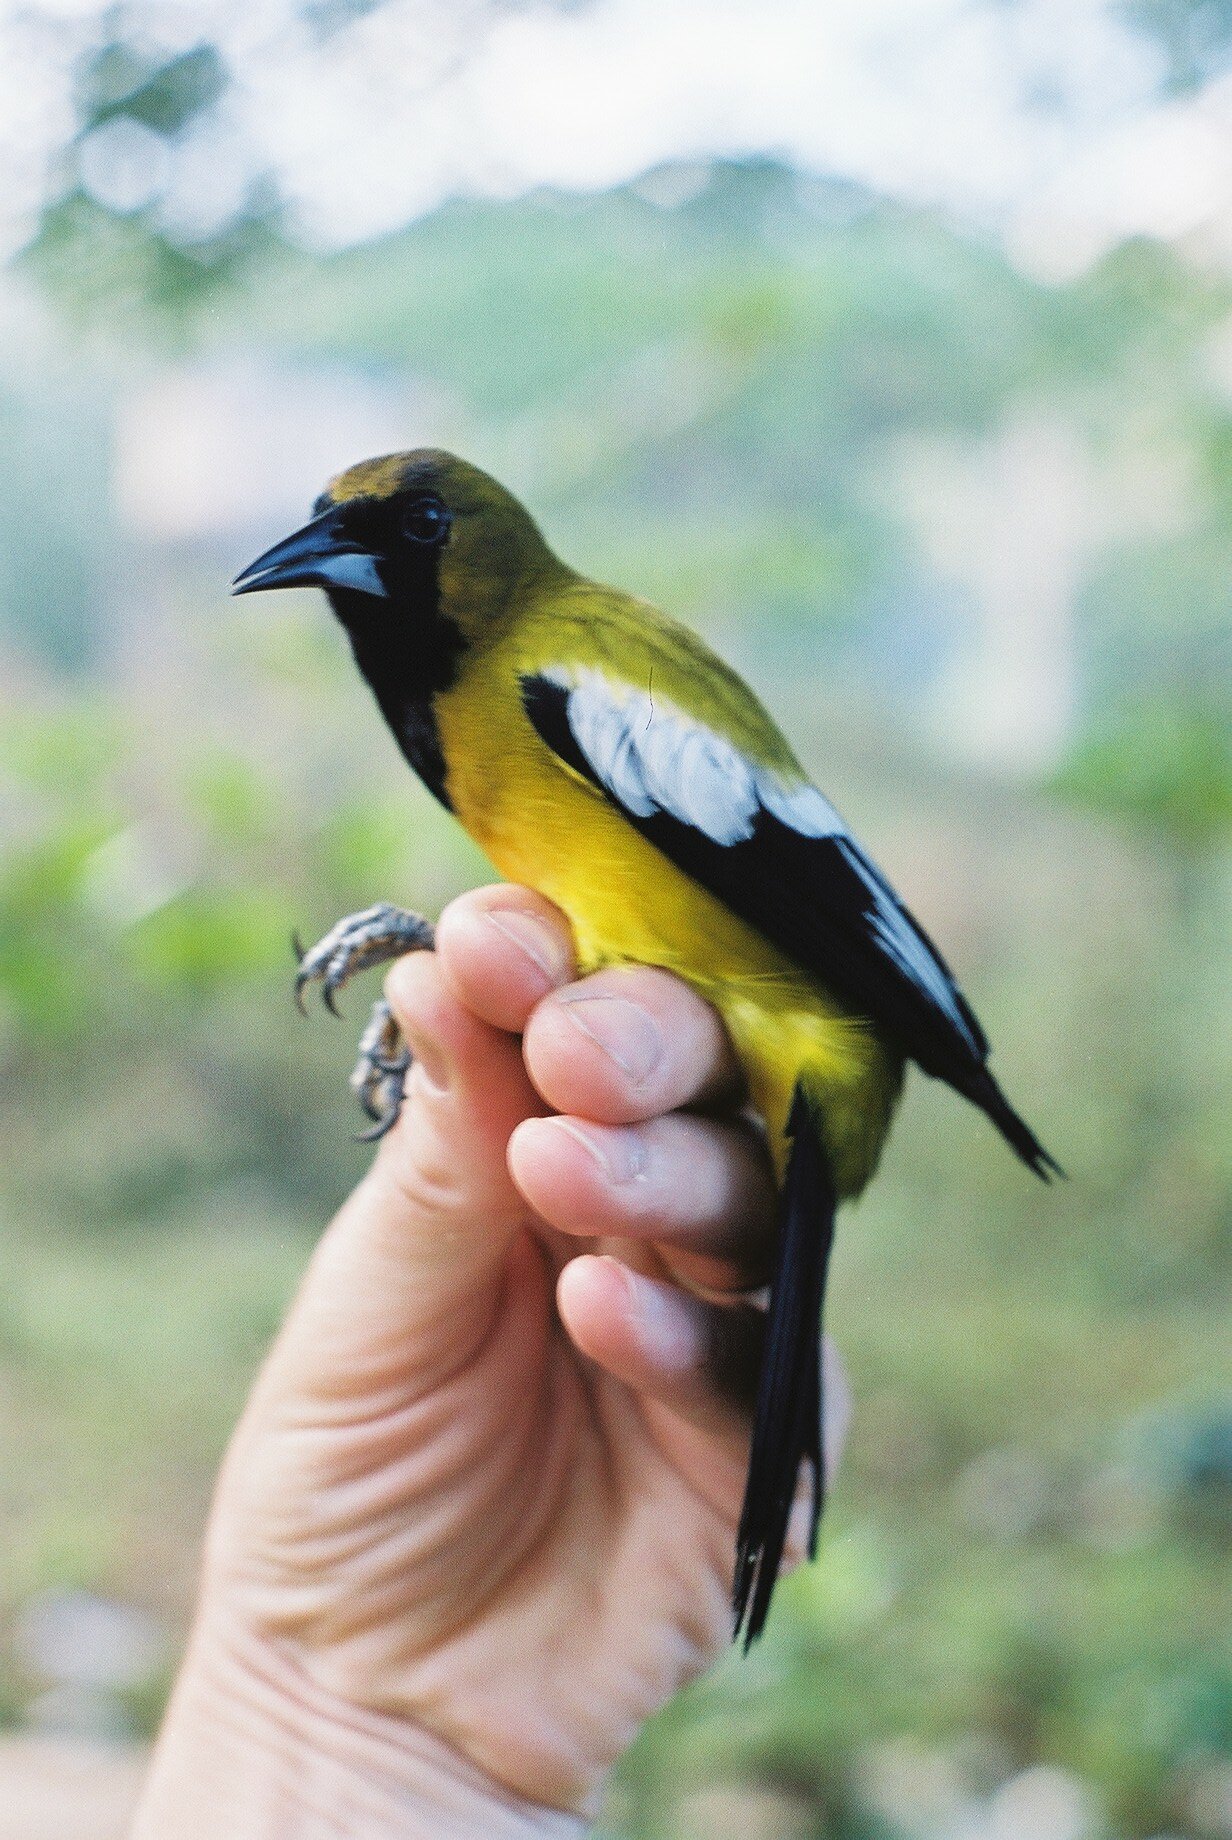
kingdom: Animalia
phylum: Chordata
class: Aves
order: Passeriformes
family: Icteridae
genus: Icterus
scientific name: Icterus leucopteryx
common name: Jamaican oriole
